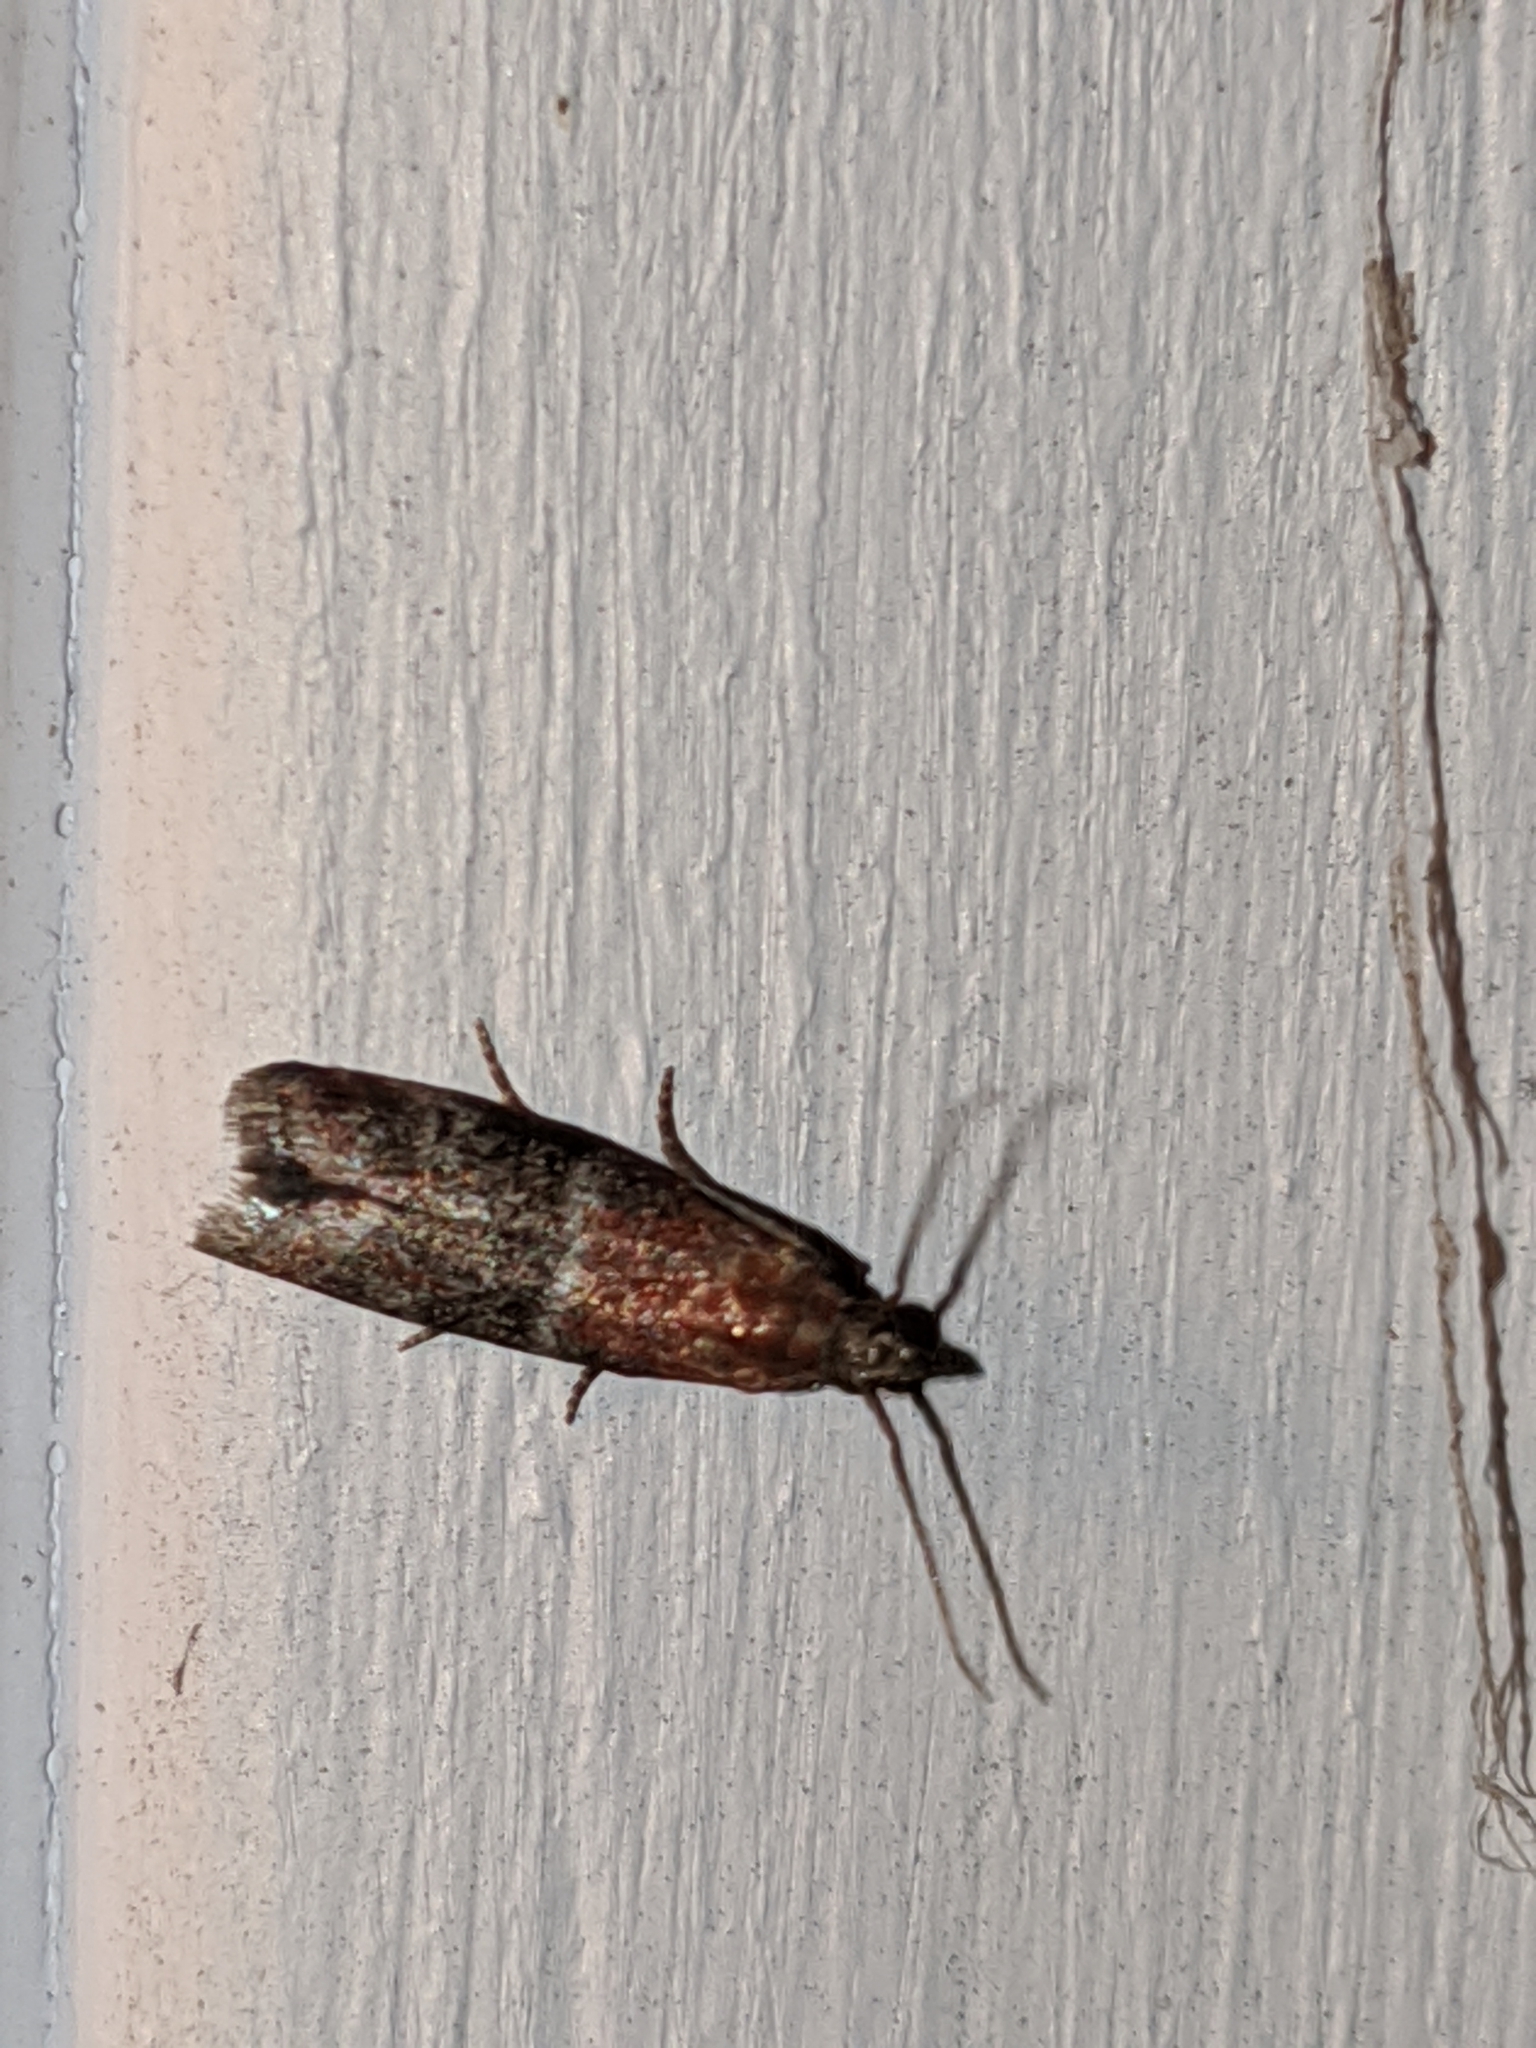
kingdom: Animalia
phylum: Arthropoda
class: Insecta
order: Lepidoptera
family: Pyralidae
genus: Moodna
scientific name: Moodna ostrinella
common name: Darker moodna moth
